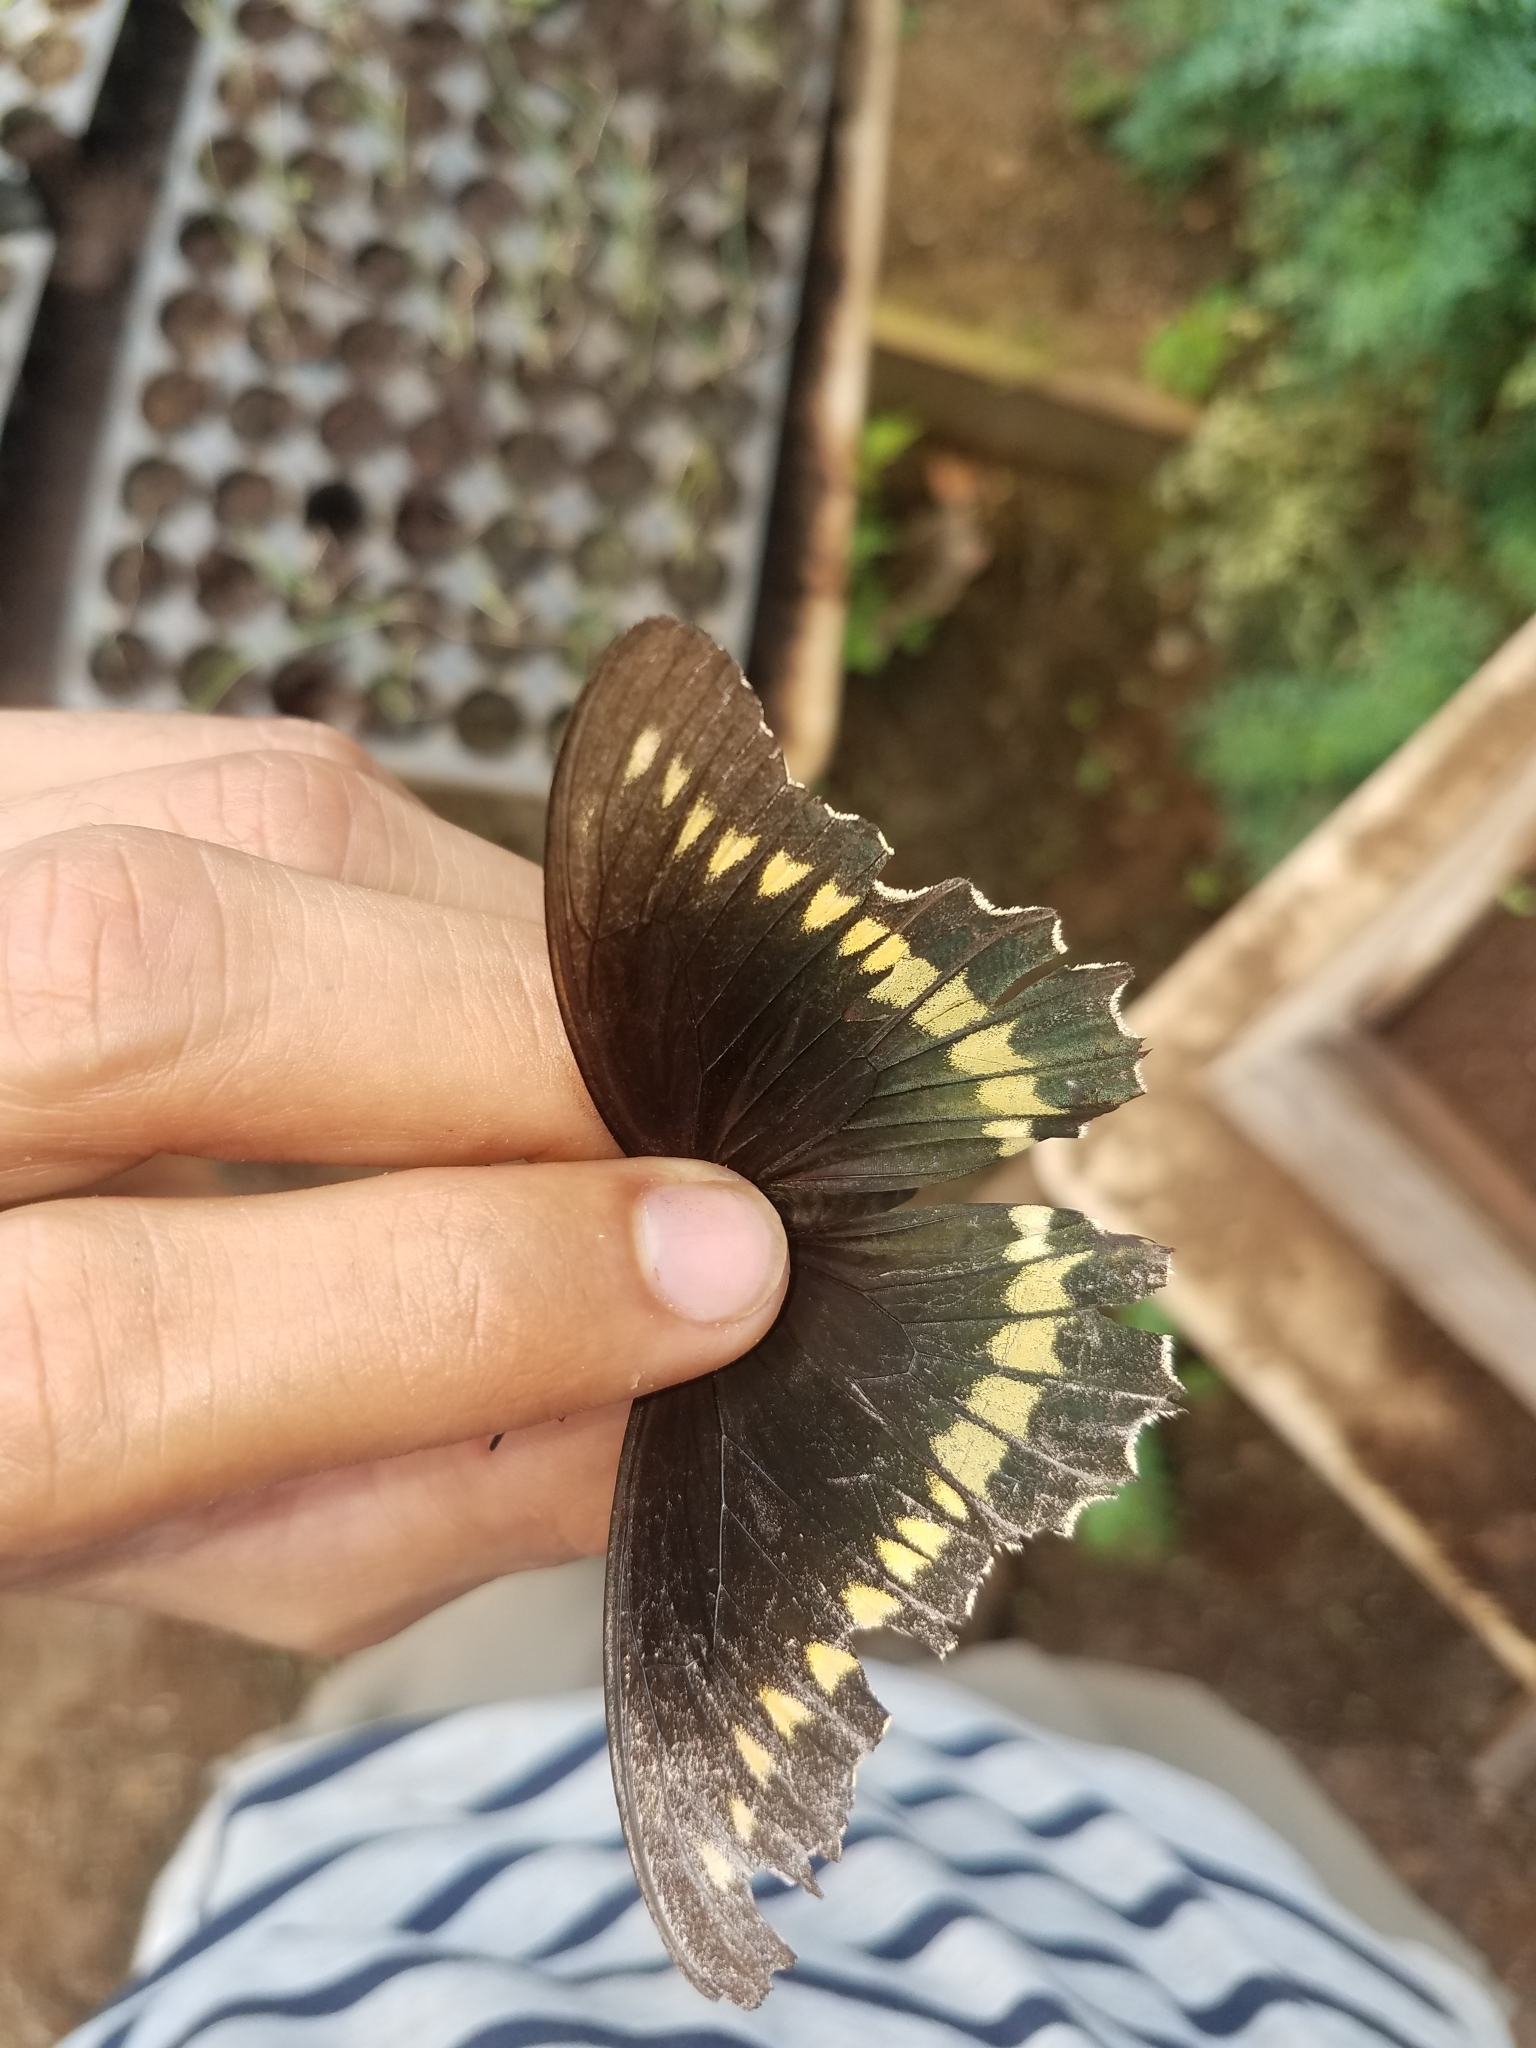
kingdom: Animalia
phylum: Arthropoda
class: Insecta
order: Lepidoptera
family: Papilionidae
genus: Battus
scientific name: Battus polydamas
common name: Polydamas swallowtail
